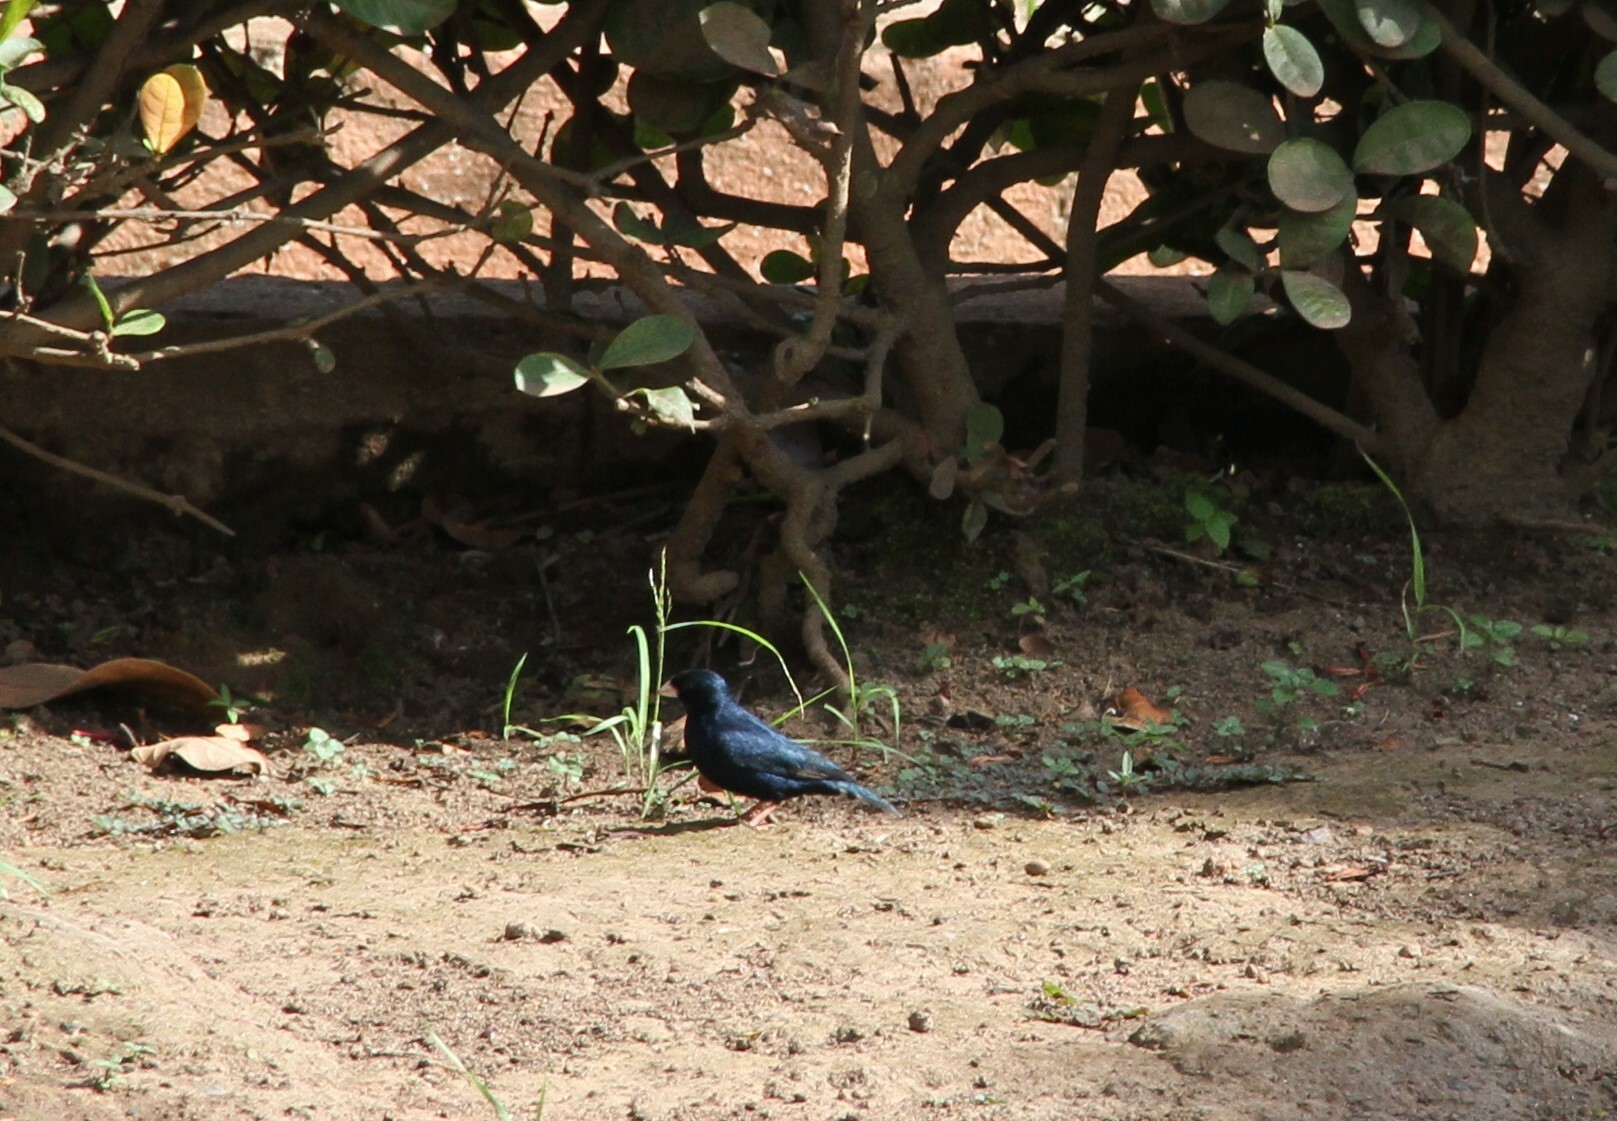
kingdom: Animalia
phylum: Chordata
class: Aves
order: Passeriformes
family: Viduidae
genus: Vidua
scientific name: Vidua chalybeata
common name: Village indigobird
